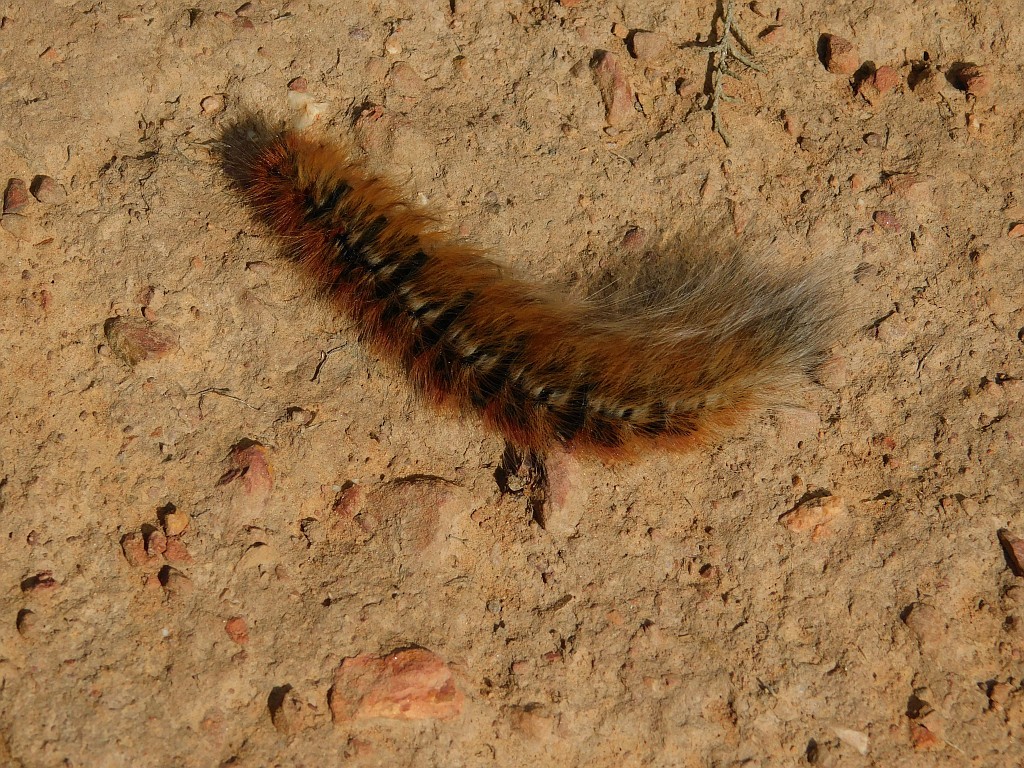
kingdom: Animalia
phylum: Arthropoda
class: Insecta
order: Lepidoptera
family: Lasiocampidae
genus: Mesocelis
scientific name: Mesocelis monticola
